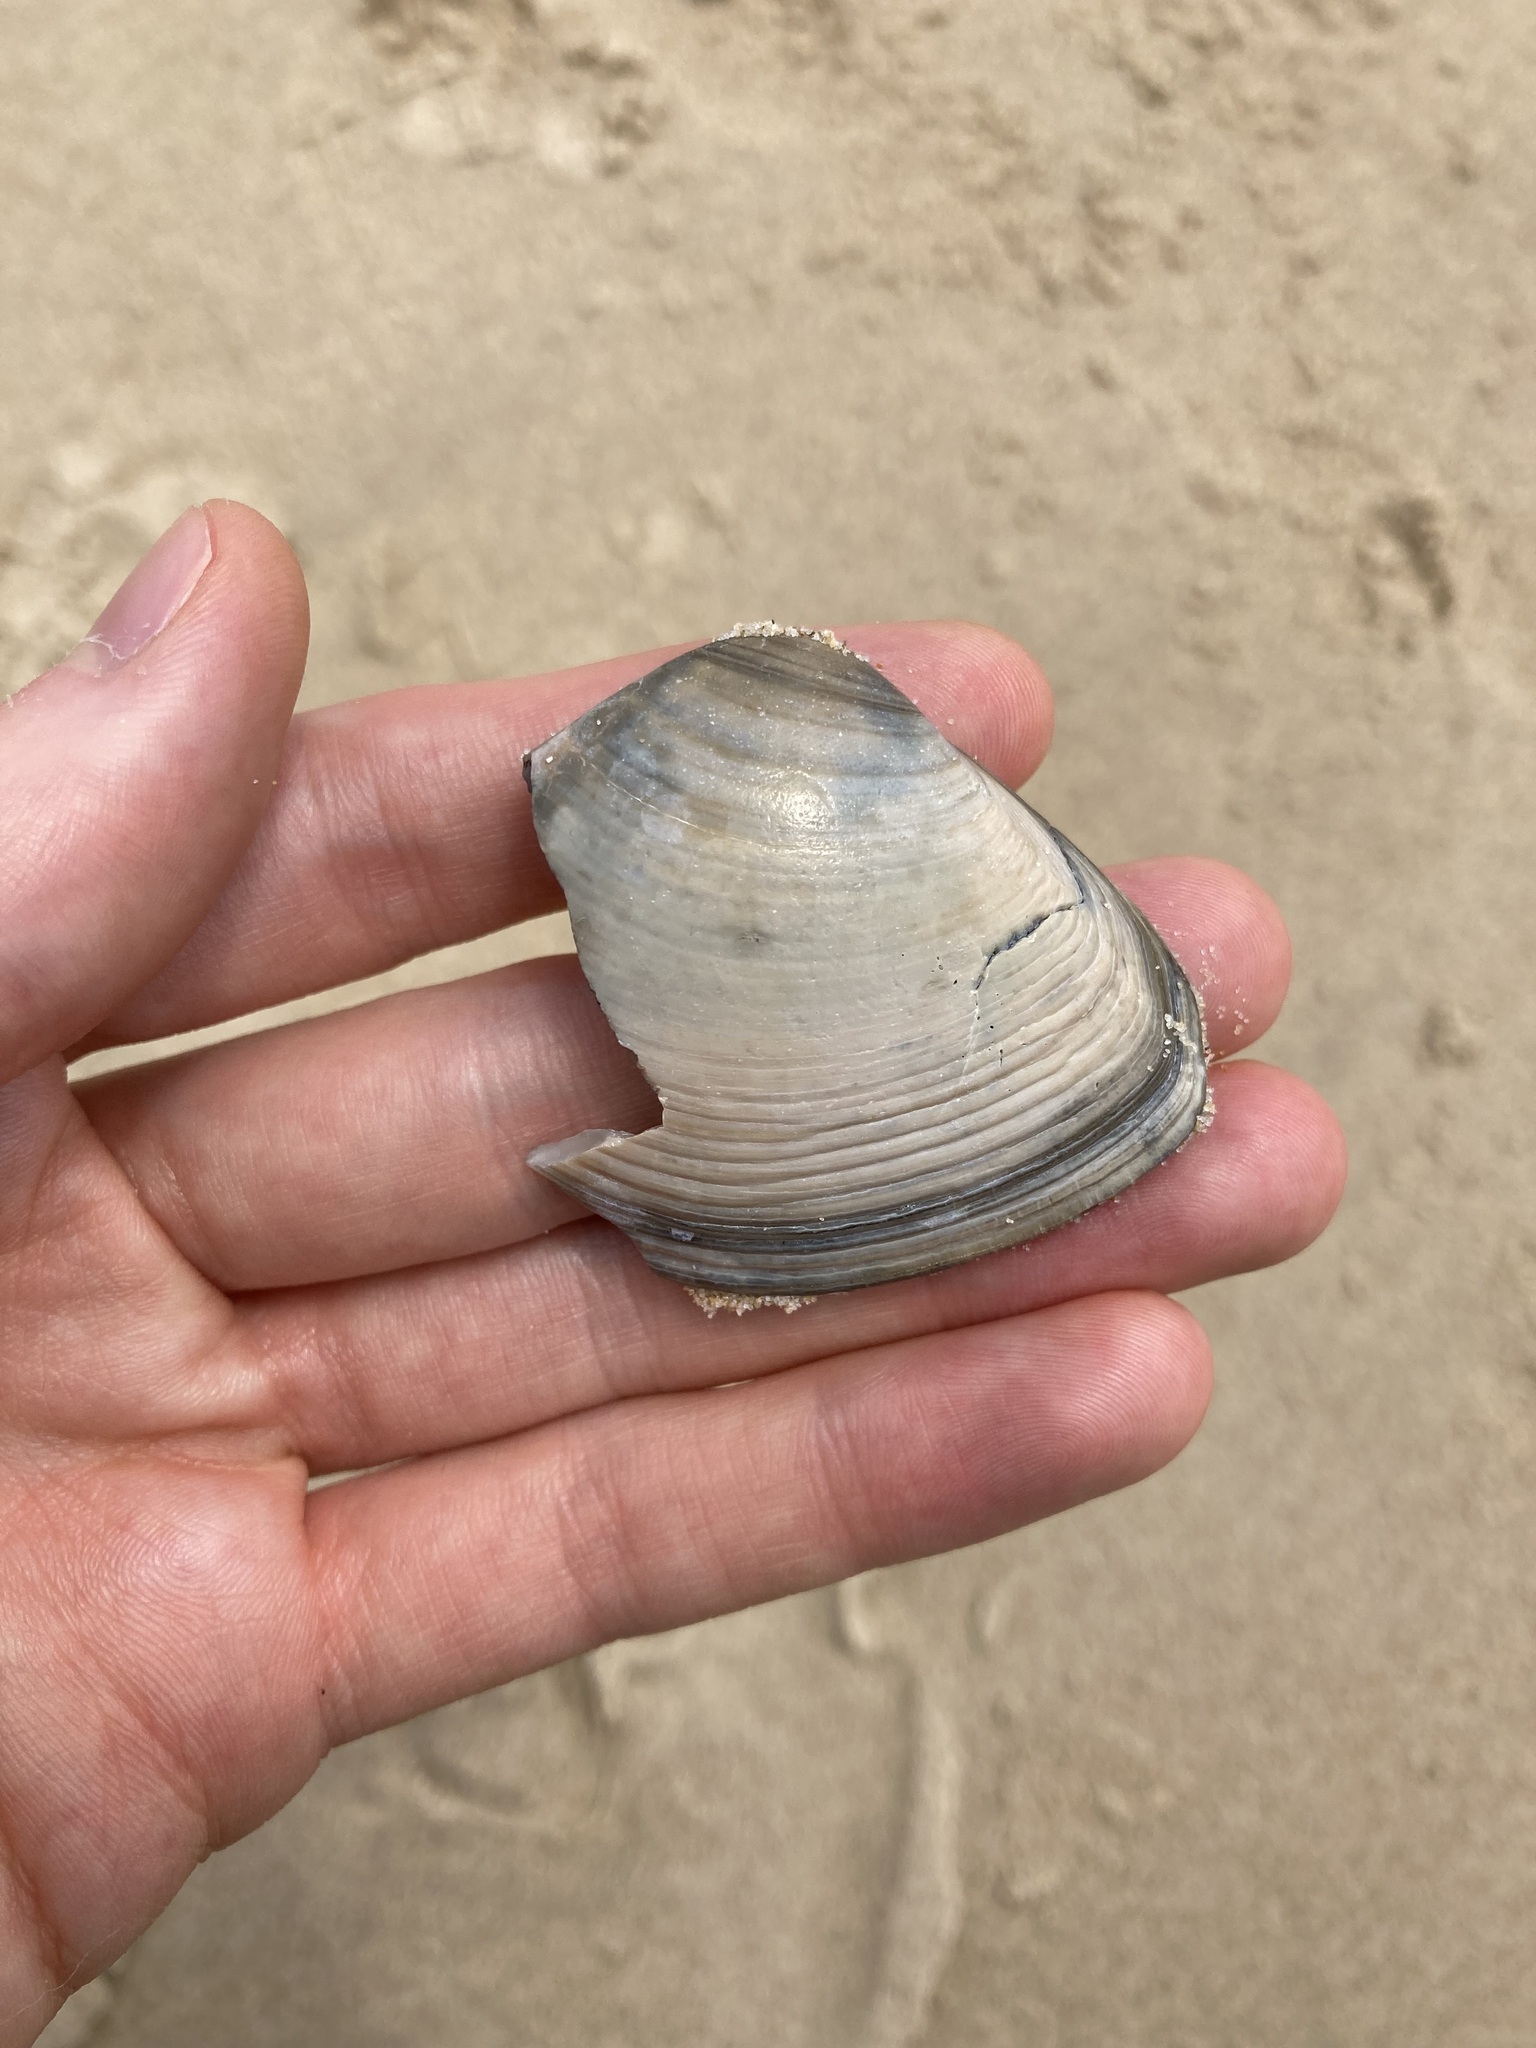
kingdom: Animalia
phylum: Mollusca
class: Bivalvia
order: Venerida
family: Mactridae
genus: Austromactra
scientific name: Austromactra rufescens
